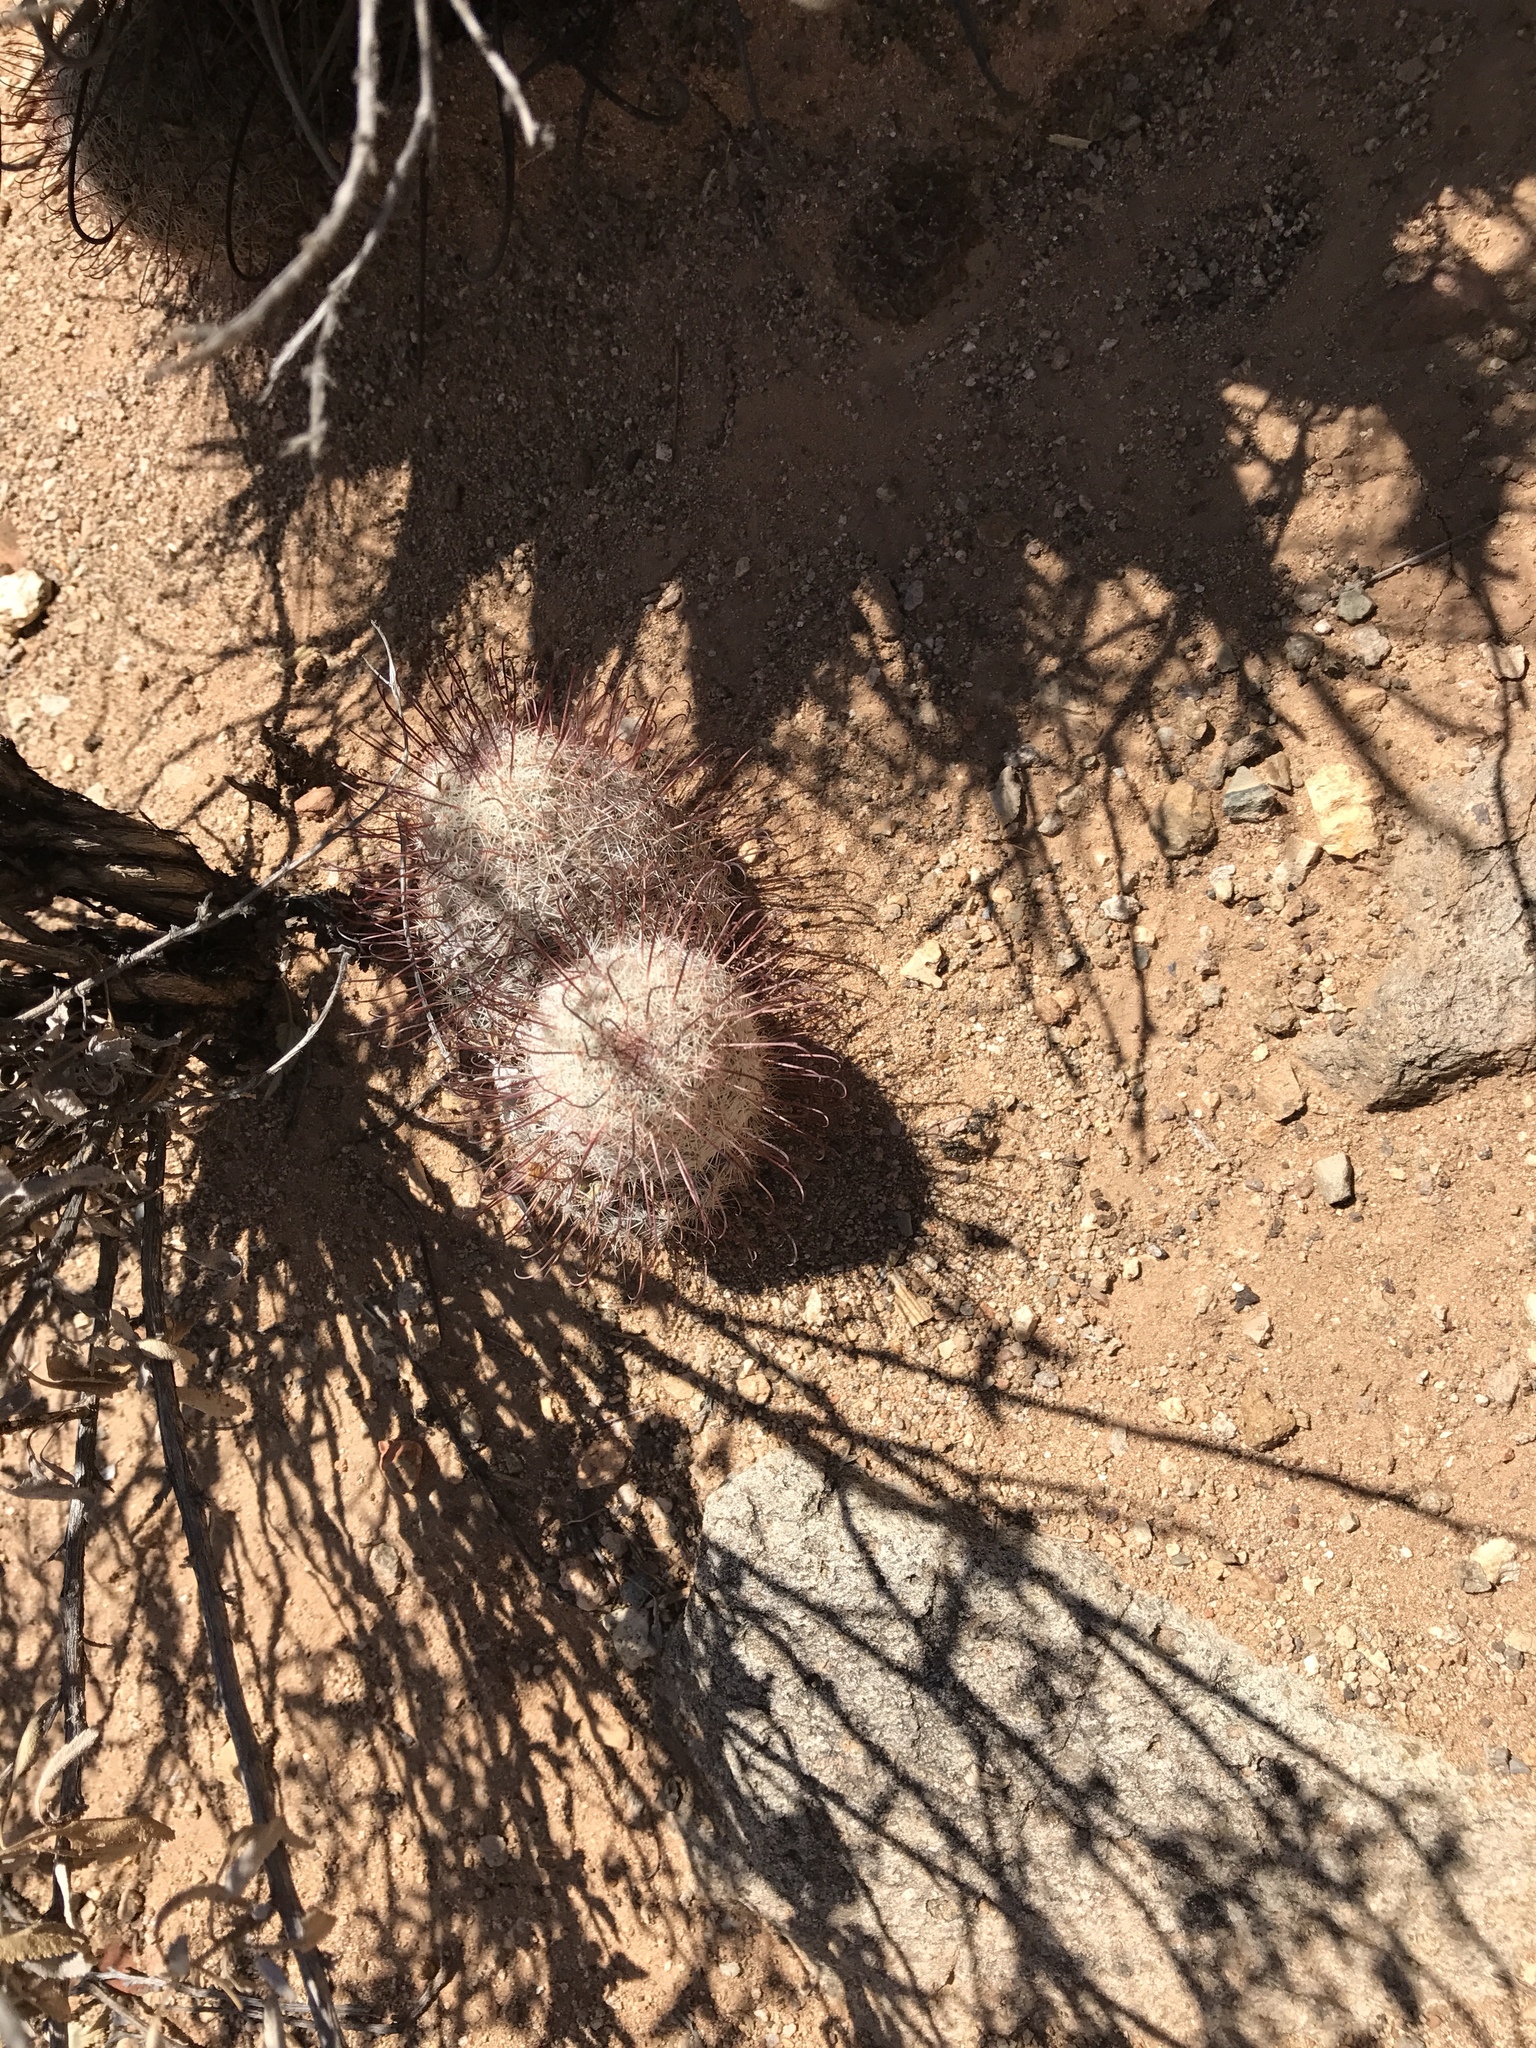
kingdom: Plantae
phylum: Tracheophyta
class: Magnoliopsida
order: Caryophyllales
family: Cactaceae
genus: Cochemiea
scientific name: Cochemiea grahamii
